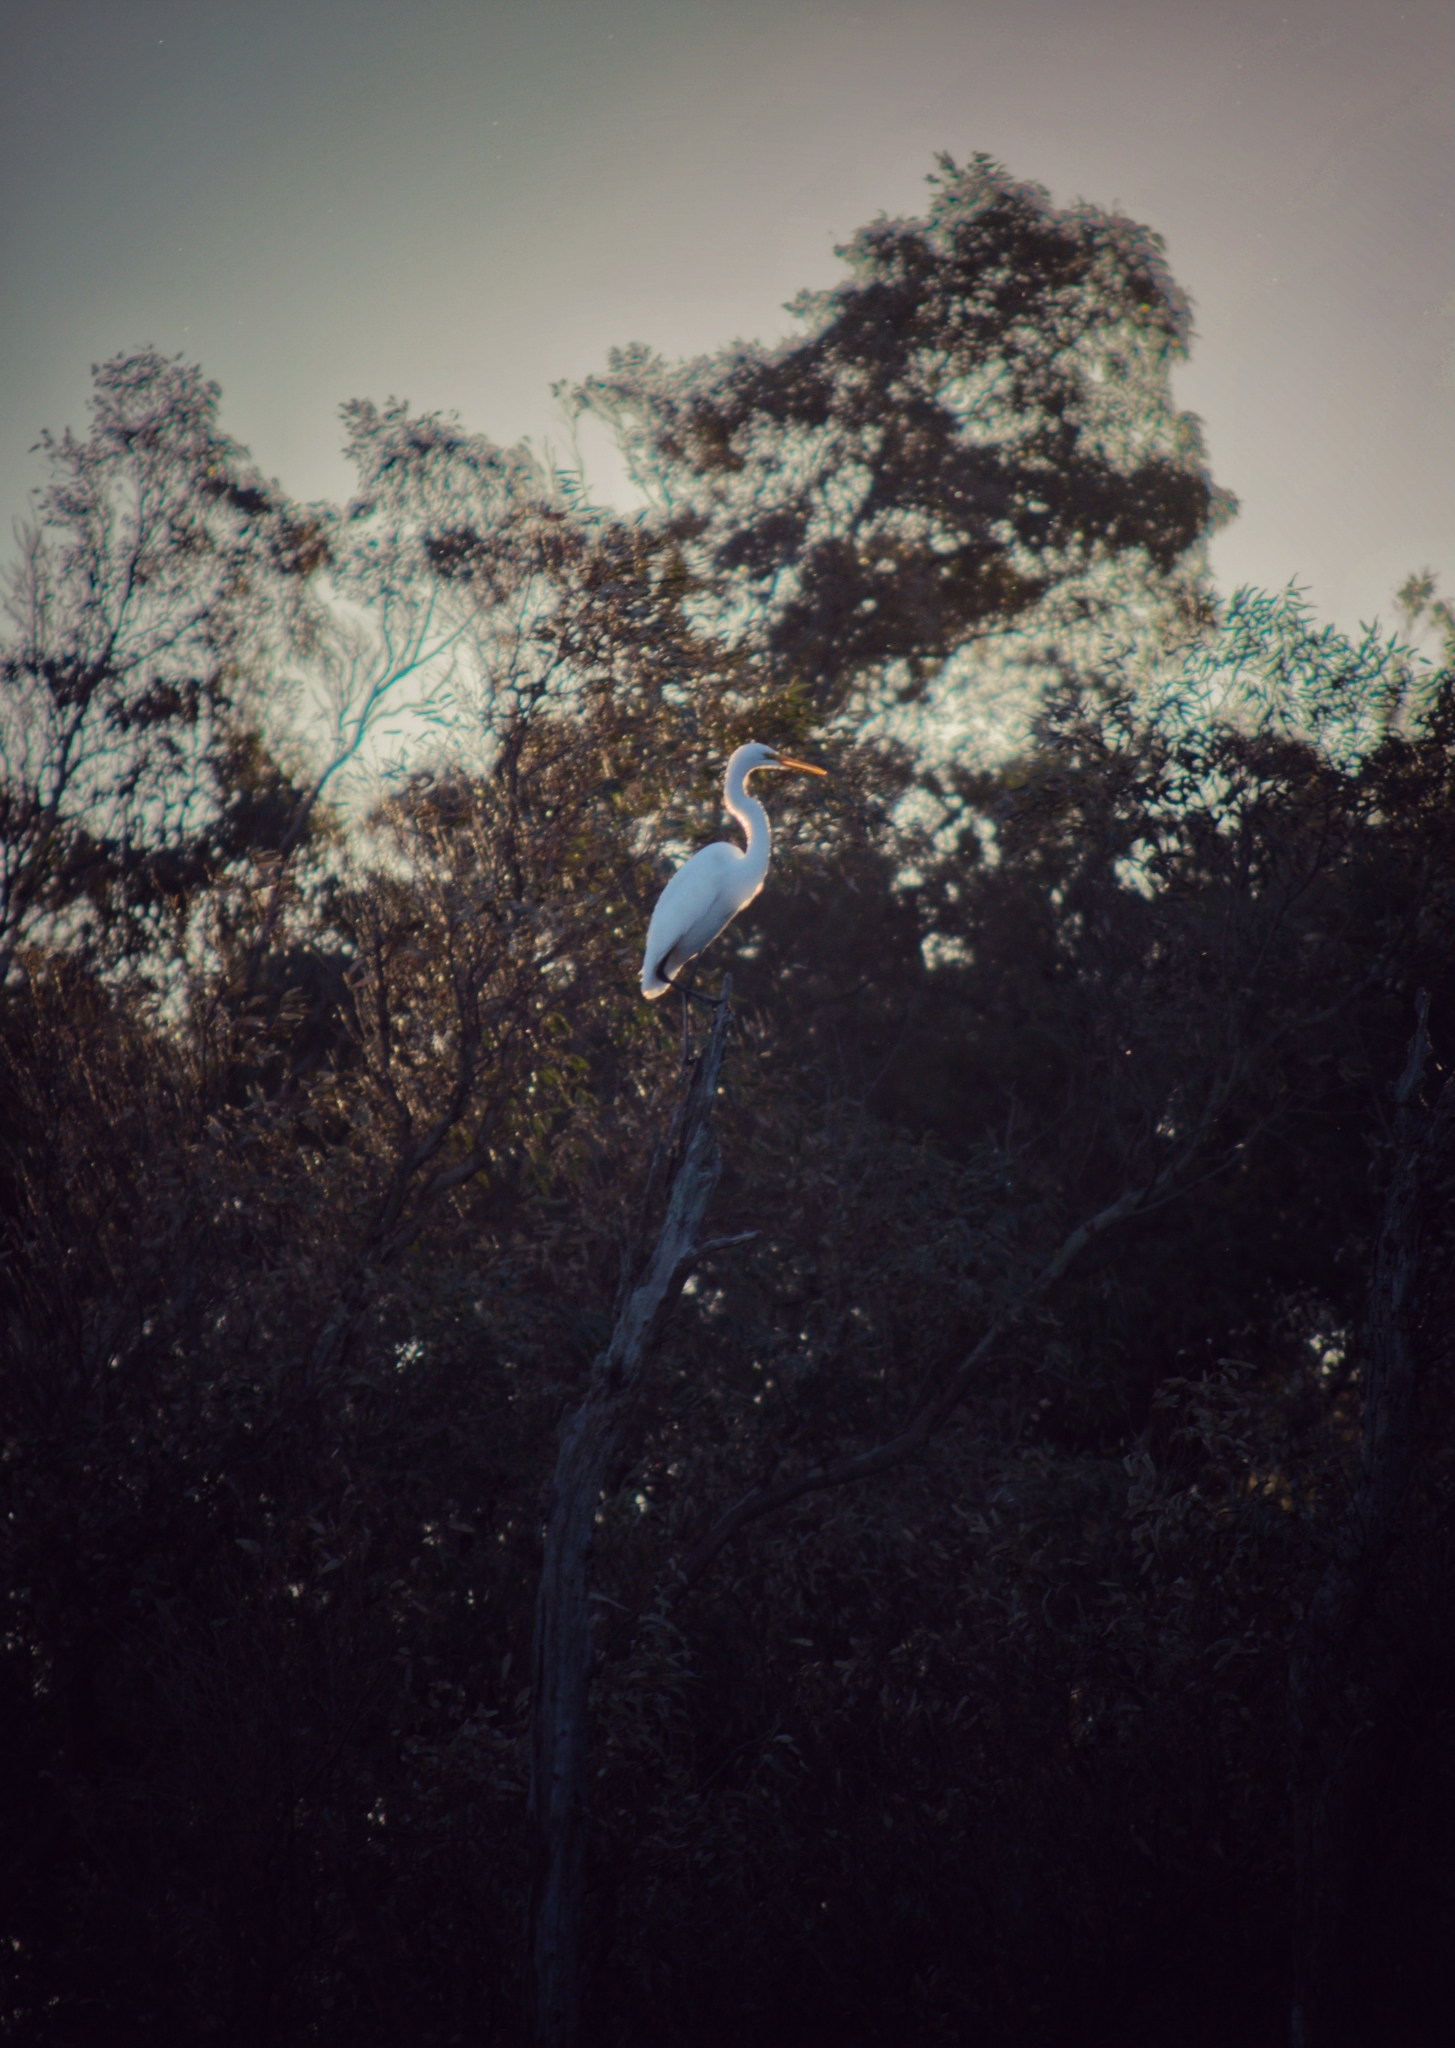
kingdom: Animalia
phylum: Chordata
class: Aves
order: Pelecaniformes
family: Ardeidae
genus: Ardea
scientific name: Ardea alba
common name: Great egret
